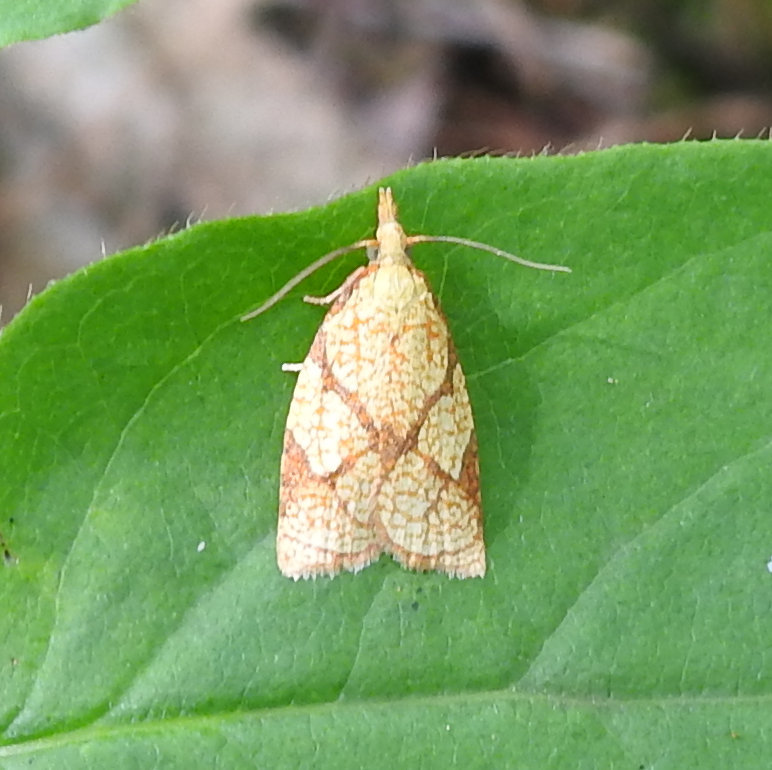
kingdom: Animalia
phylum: Arthropoda
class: Insecta
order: Lepidoptera
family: Tortricidae
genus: Cenopis
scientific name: Cenopis reticulatana
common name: Reticulated fruitworm moth
